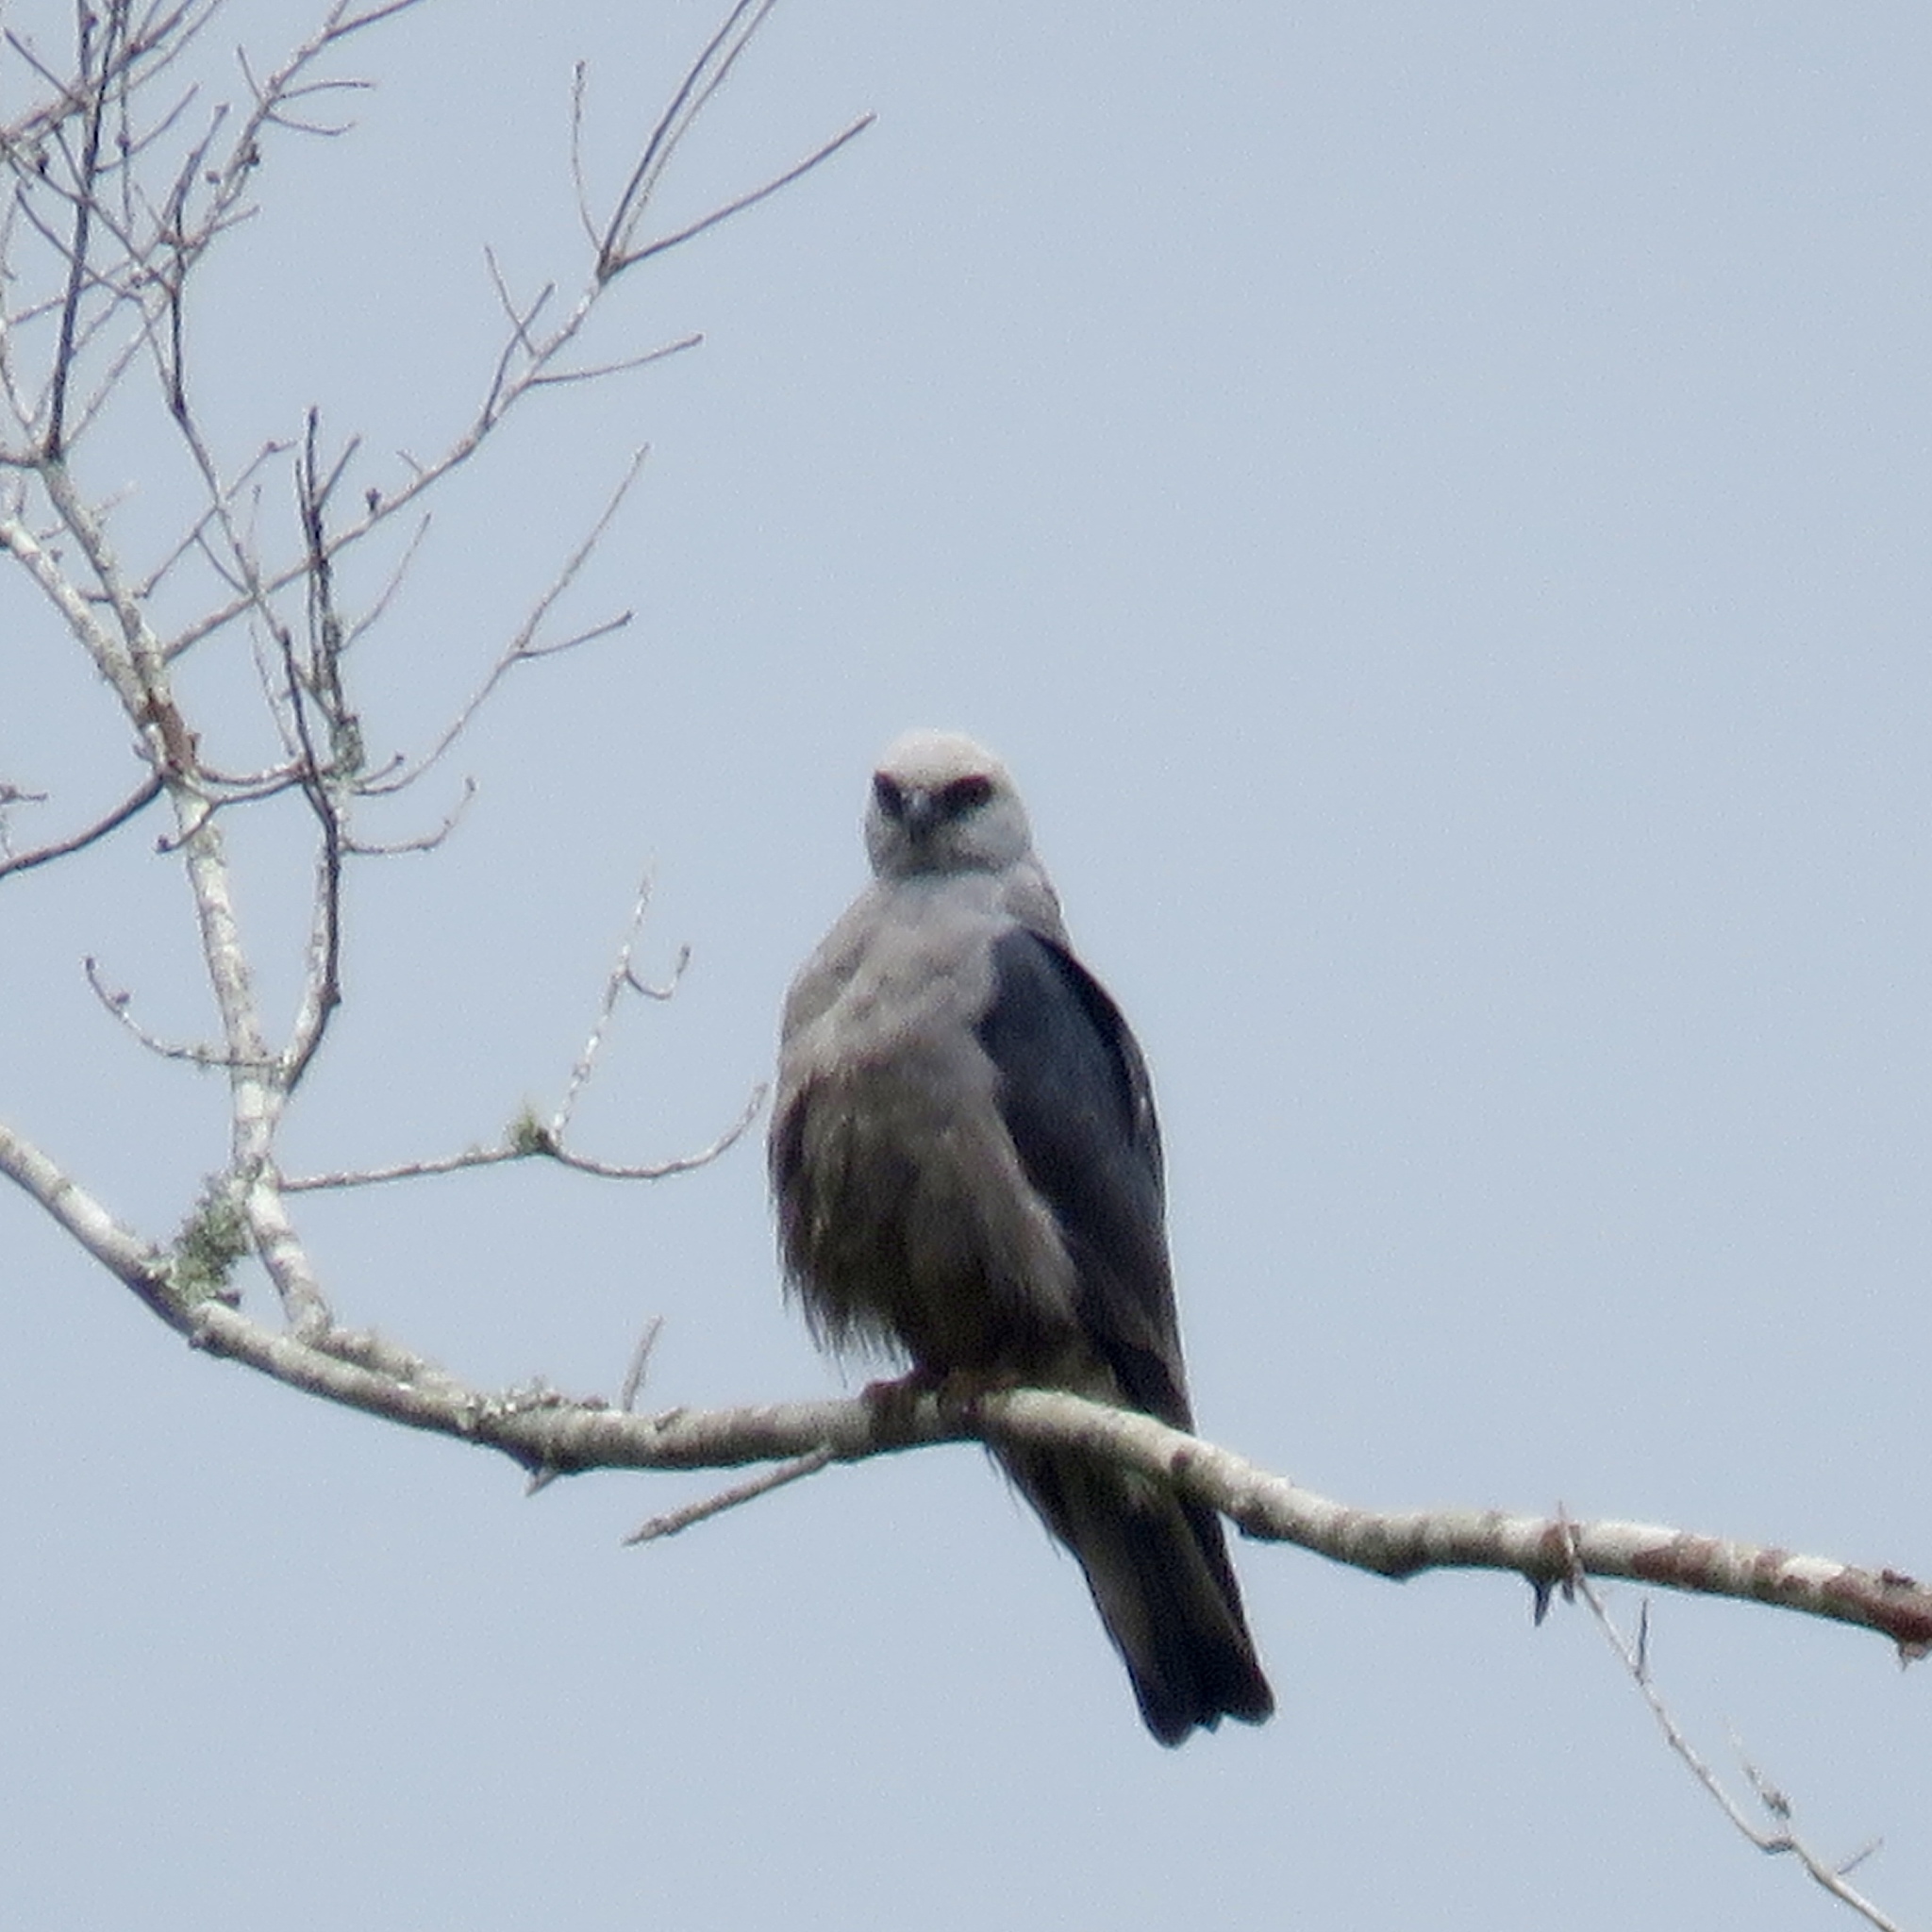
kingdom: Animalia
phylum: Chordata
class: Aves
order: Accipitriformes
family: Accipitridae
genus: Ictinia
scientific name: Ictinia mississippiensis
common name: Mississippi kite
